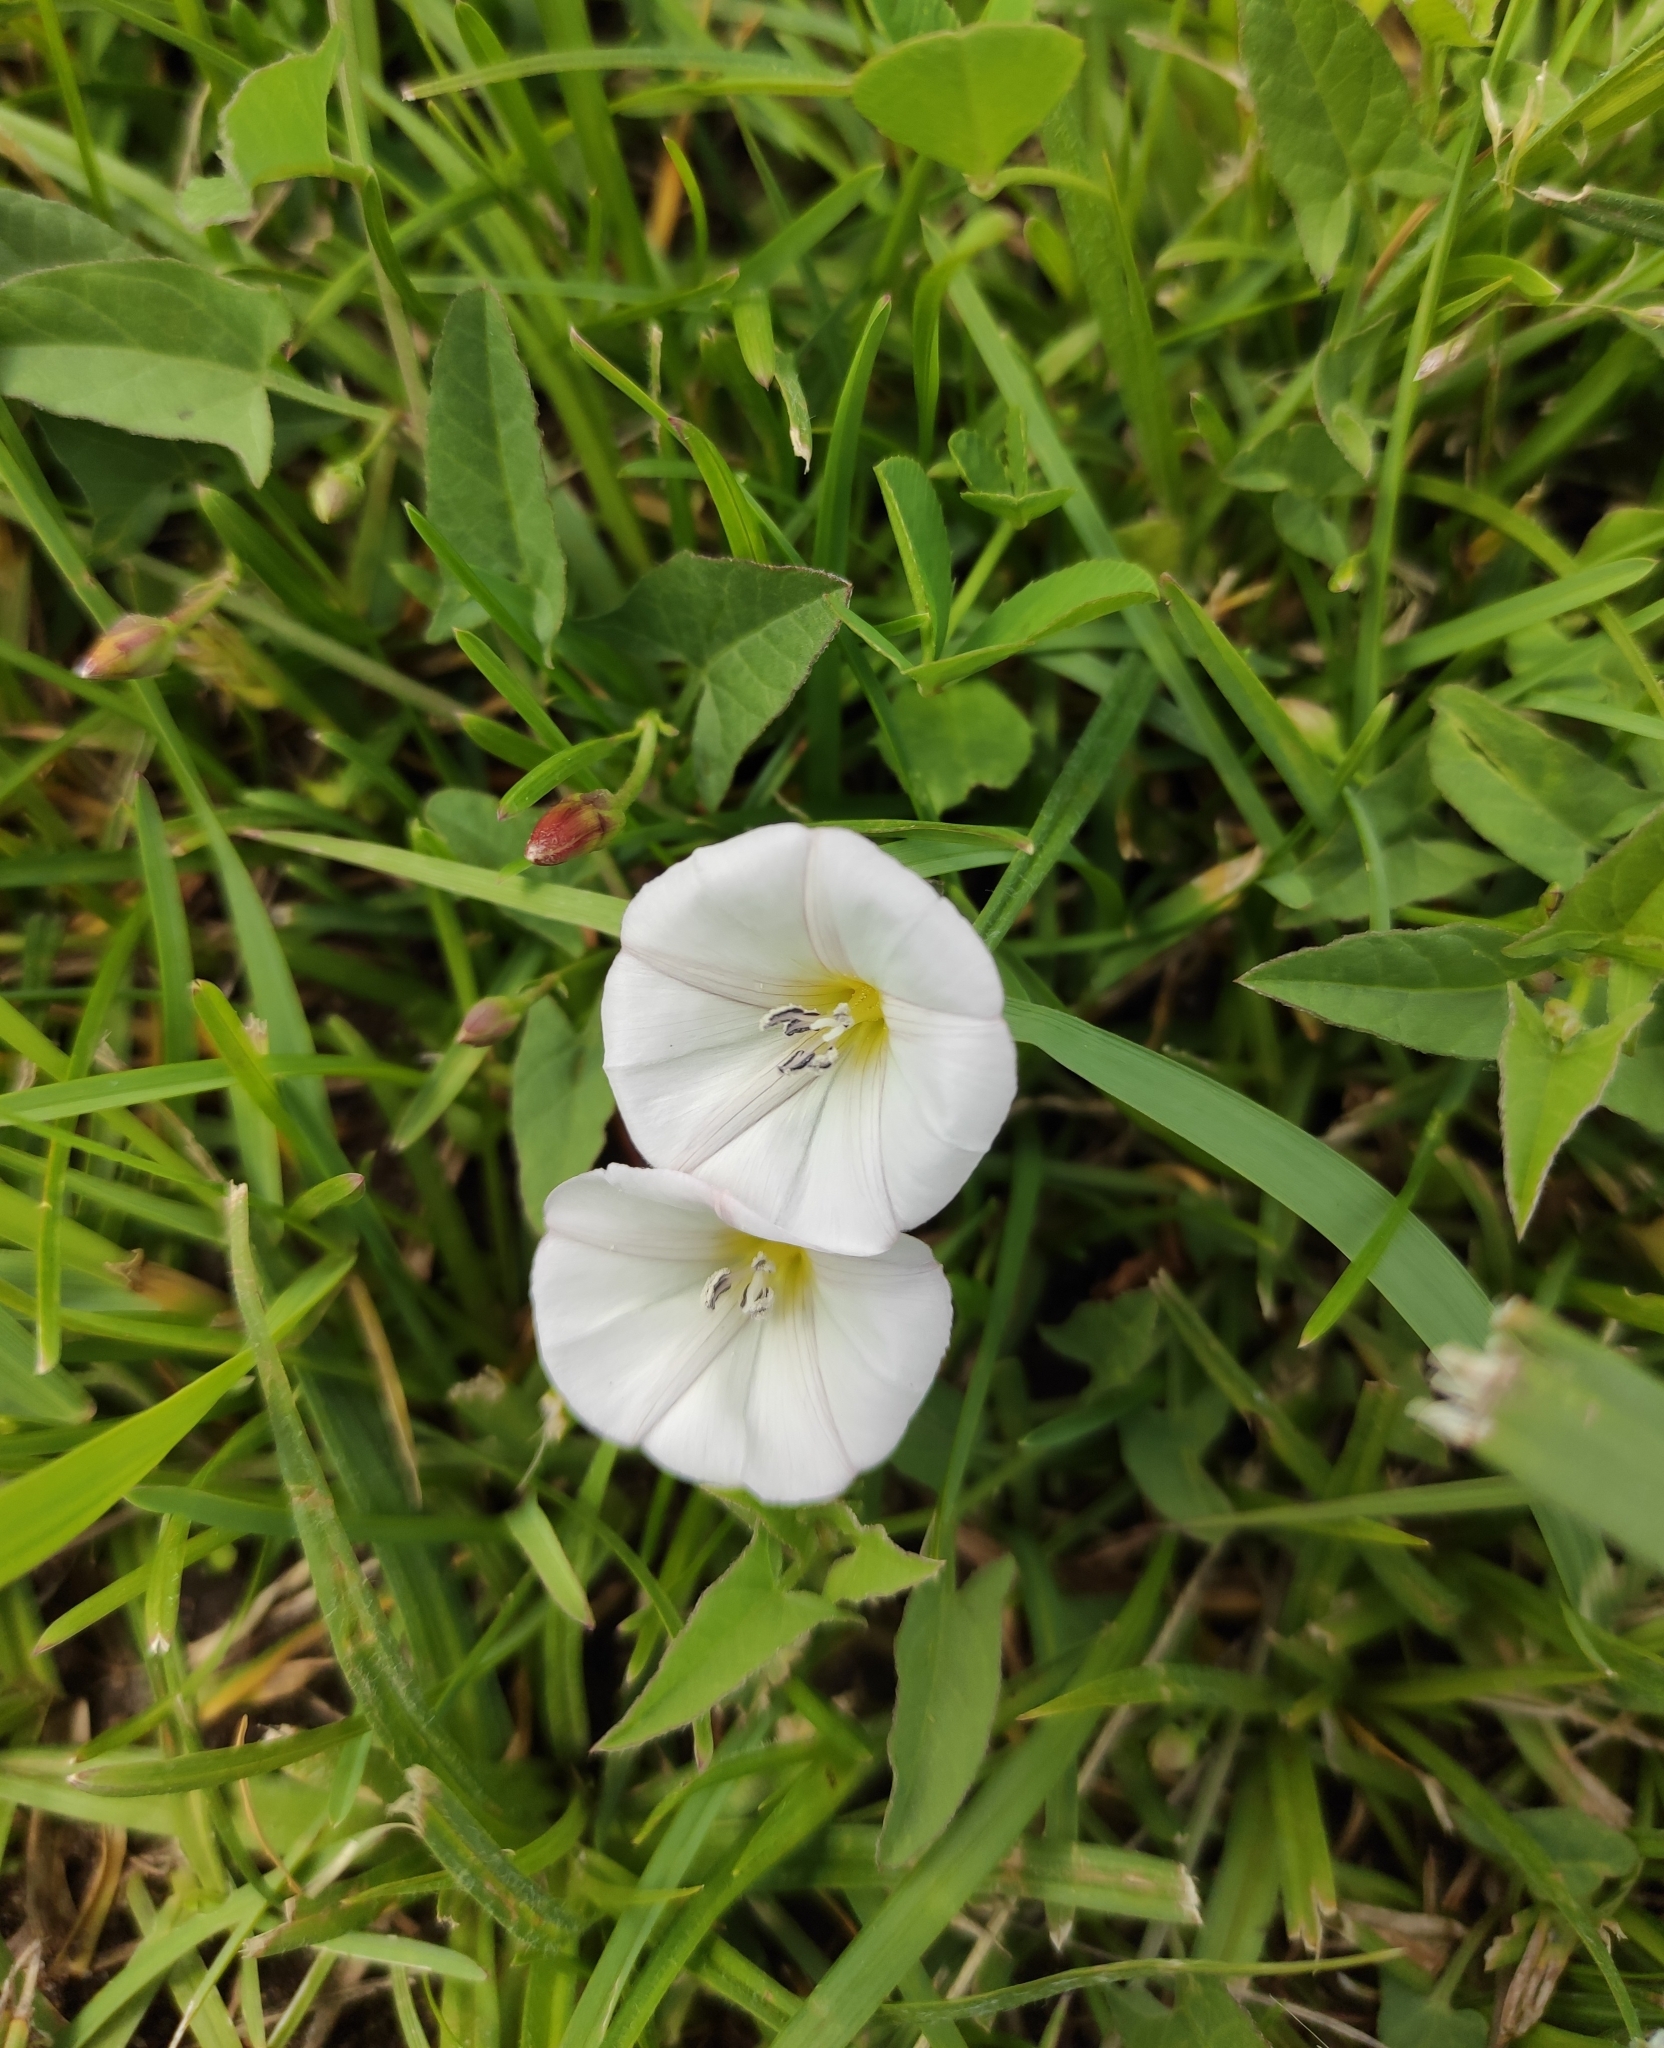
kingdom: Plantae
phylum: Tracheophyta
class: Magnoliopsida
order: Solanales
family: Convolvulaceae
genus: Convolvulus
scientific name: Convolvulus arvensis
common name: Field bindweed
